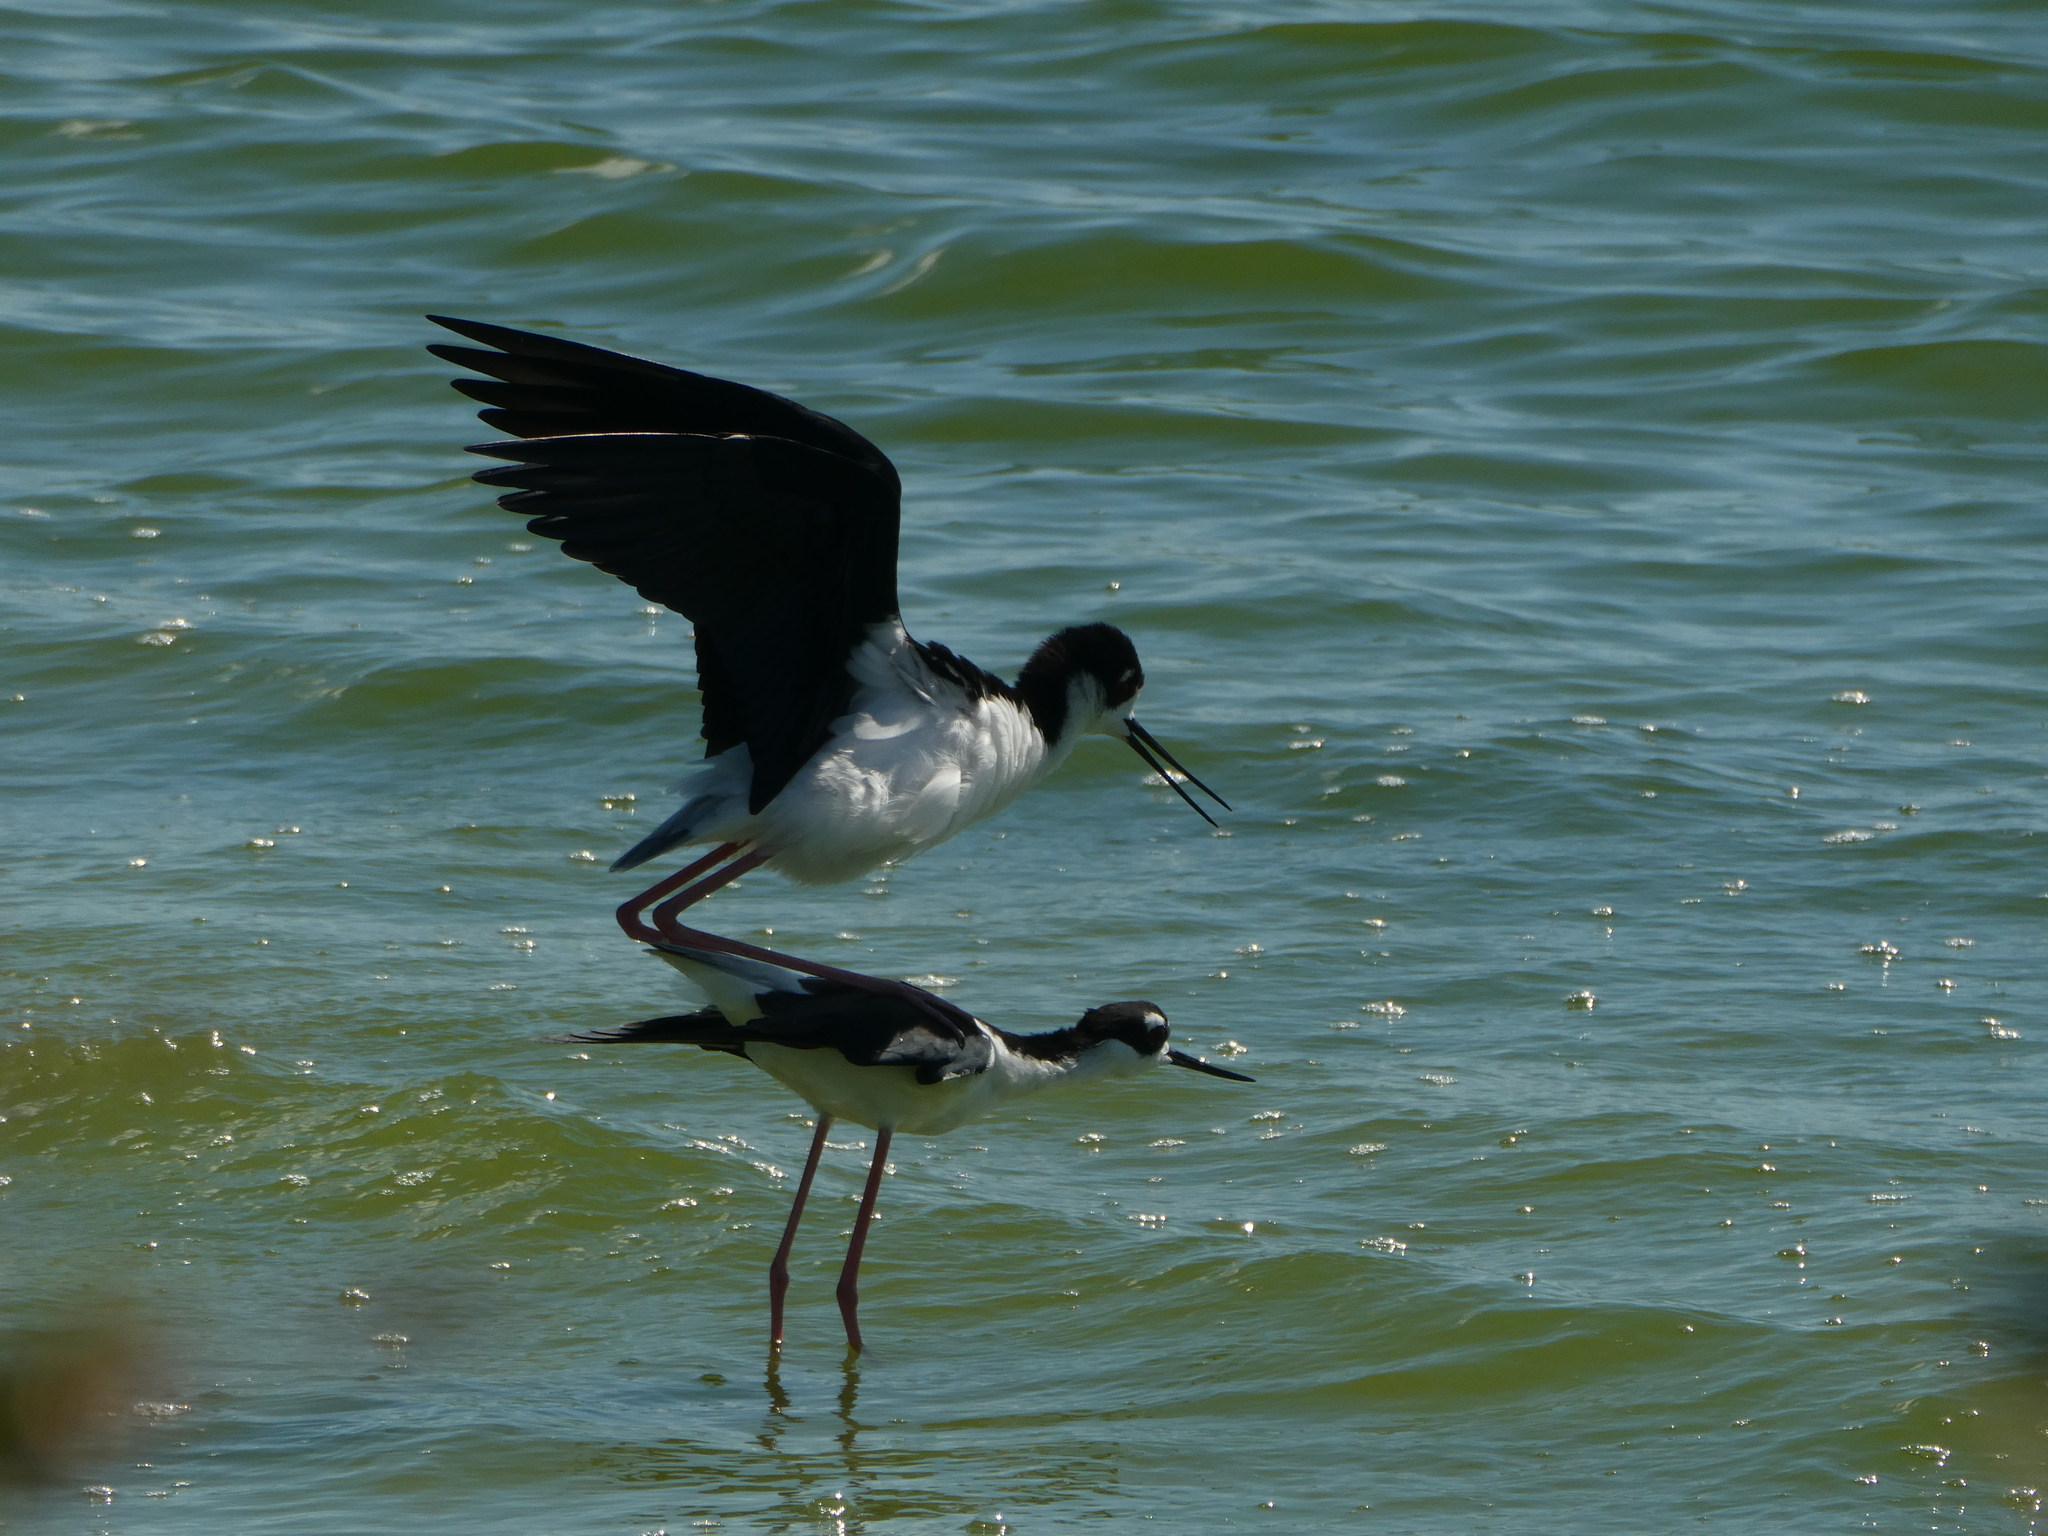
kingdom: Animalia
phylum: Chordata
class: Aves
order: Charadriiformes
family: Recurvirostridae
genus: Himantopus
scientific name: Himantopus mexicanus
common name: Black-necked stilt
